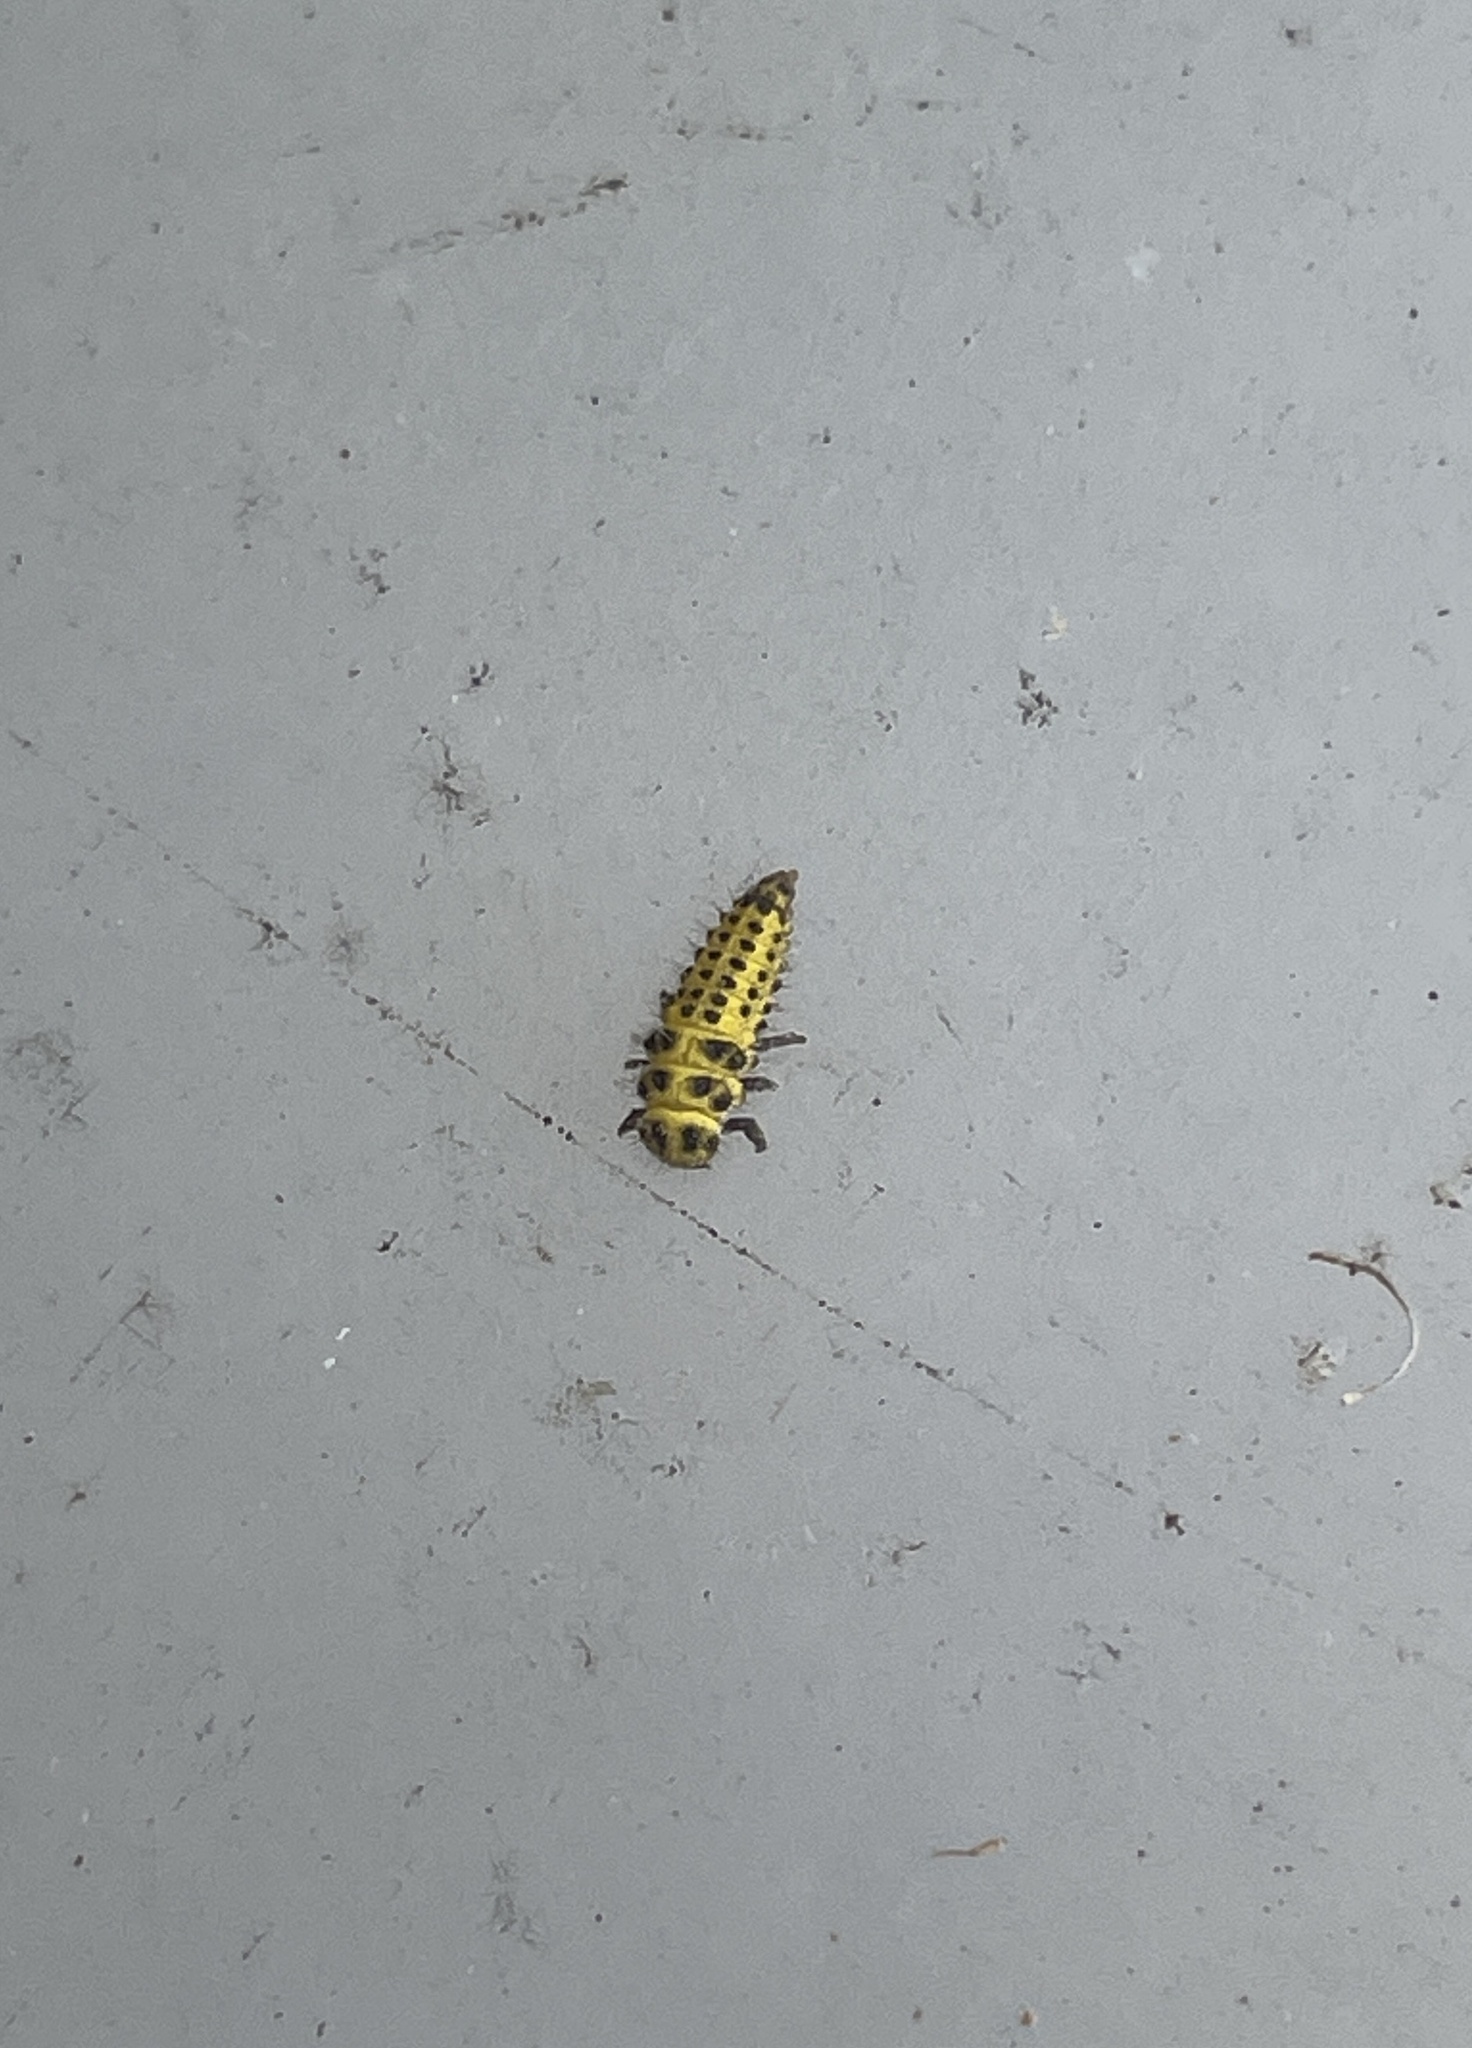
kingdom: Animalia
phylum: Arthropoda
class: Insecta
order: Coleoptera
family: Coccinellidae
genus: Psyllobora
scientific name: Psyllobora vigintiduopunctata
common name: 22-spot ladybird
